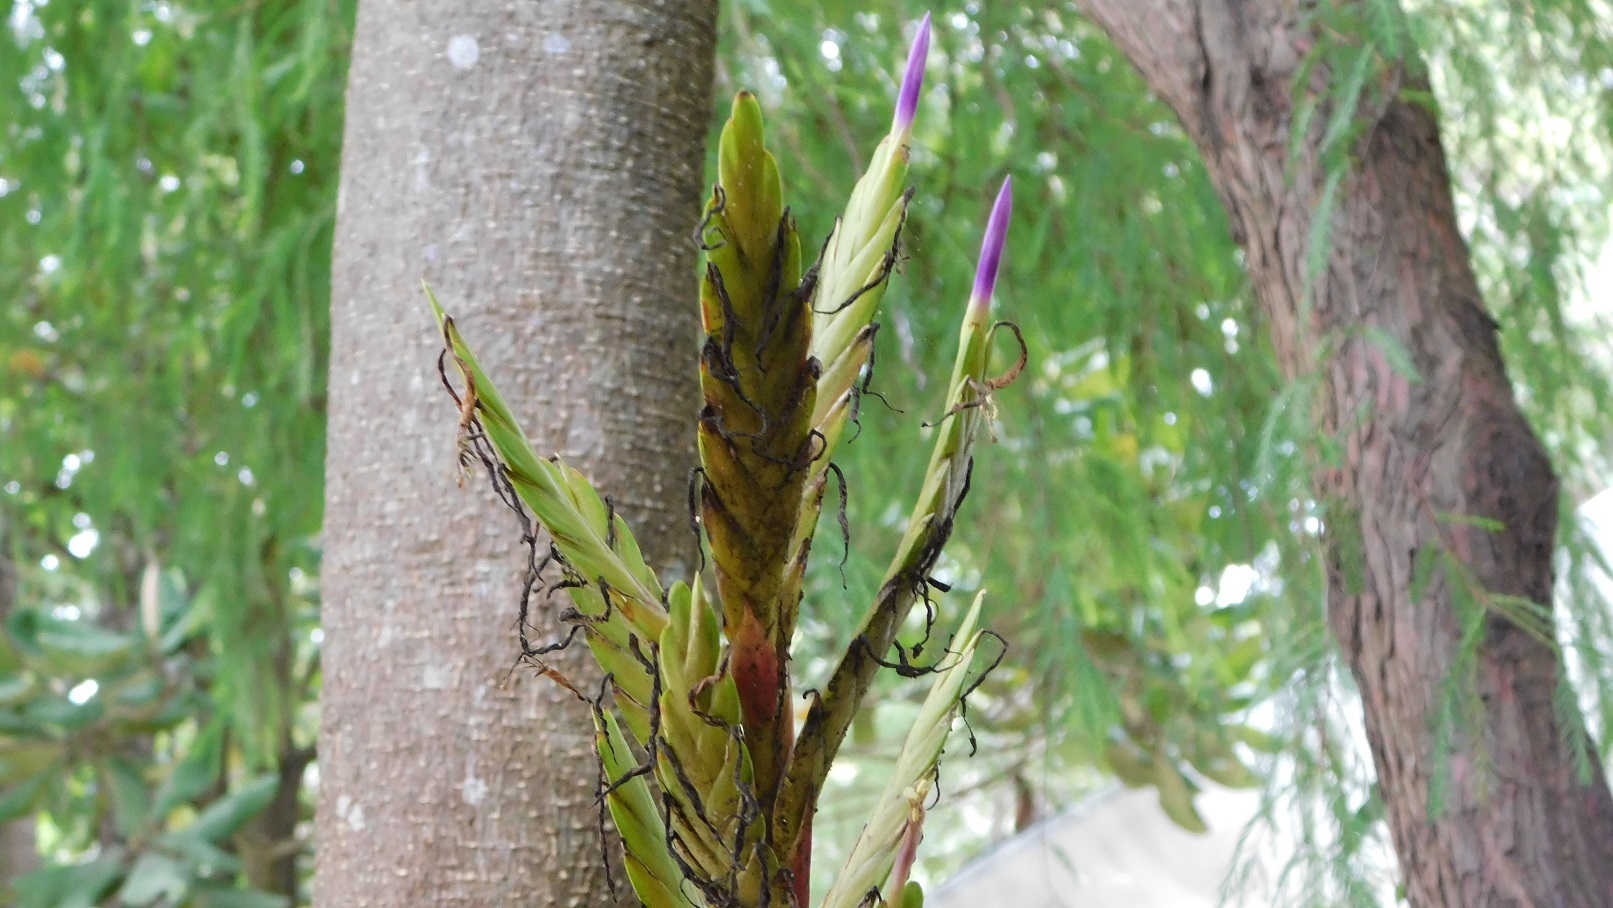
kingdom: Plantae
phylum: Tracheophyta
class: Liliopsida
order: Poales
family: Bromeliaceae
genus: Tillandsia
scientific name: Tillandsia rodrigueziana
